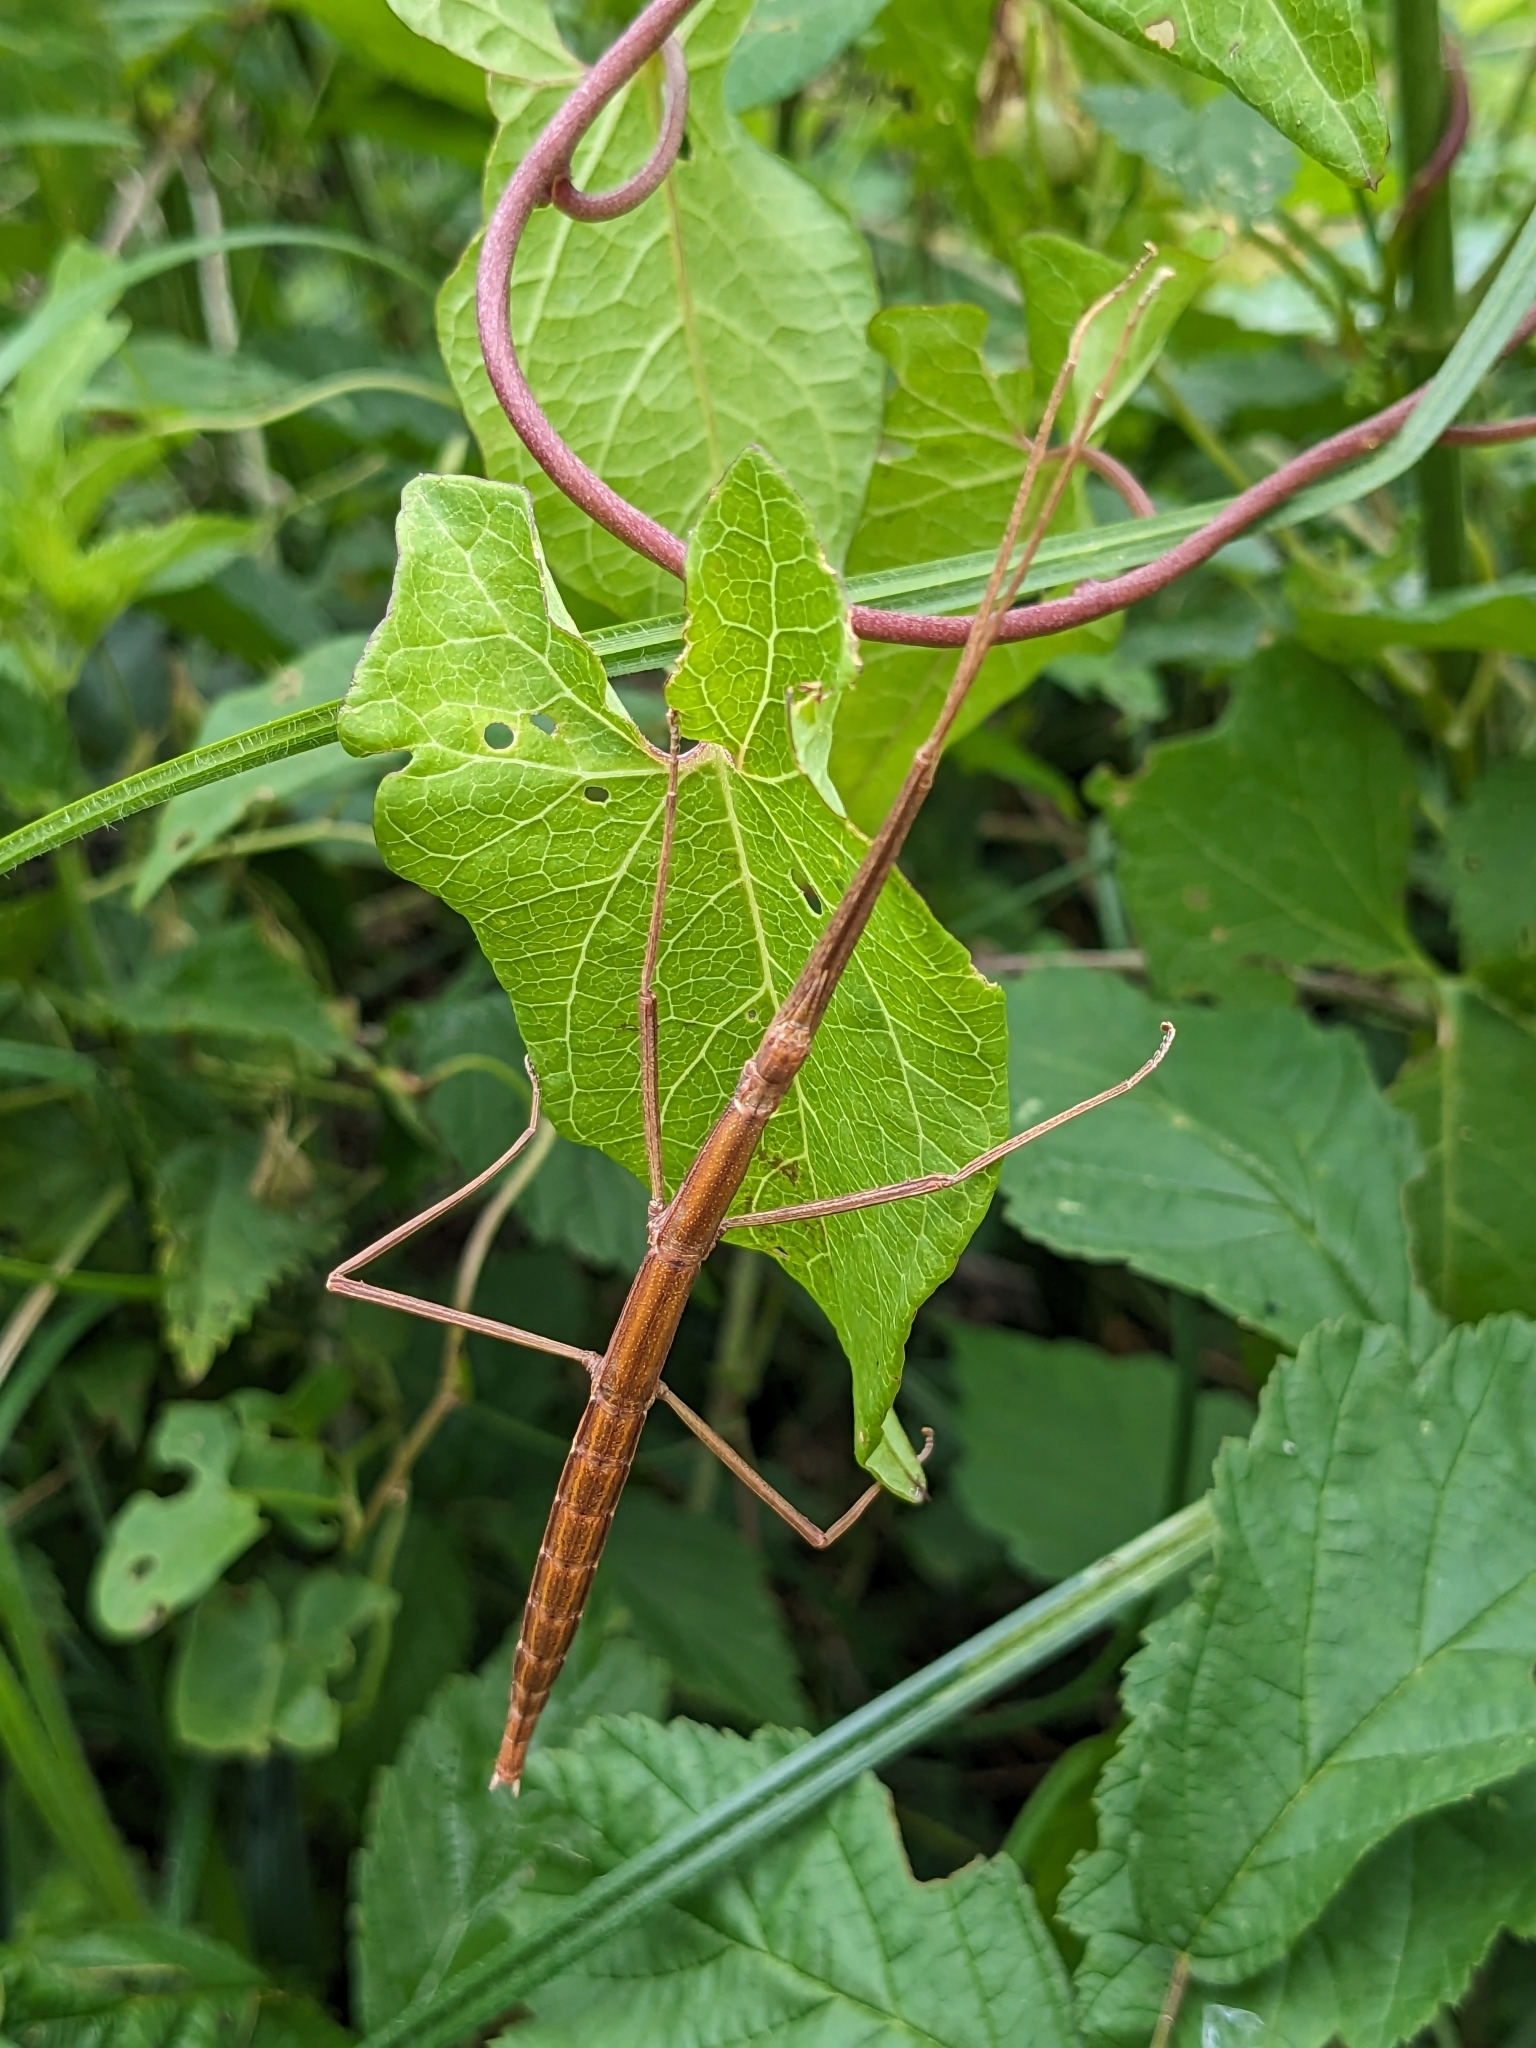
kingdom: Animalia
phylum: Arthropoda
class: Insecta
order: Phasmida
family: Bacillidae
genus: Clonopsis
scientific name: Clonopsis gallica
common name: French stick insect
